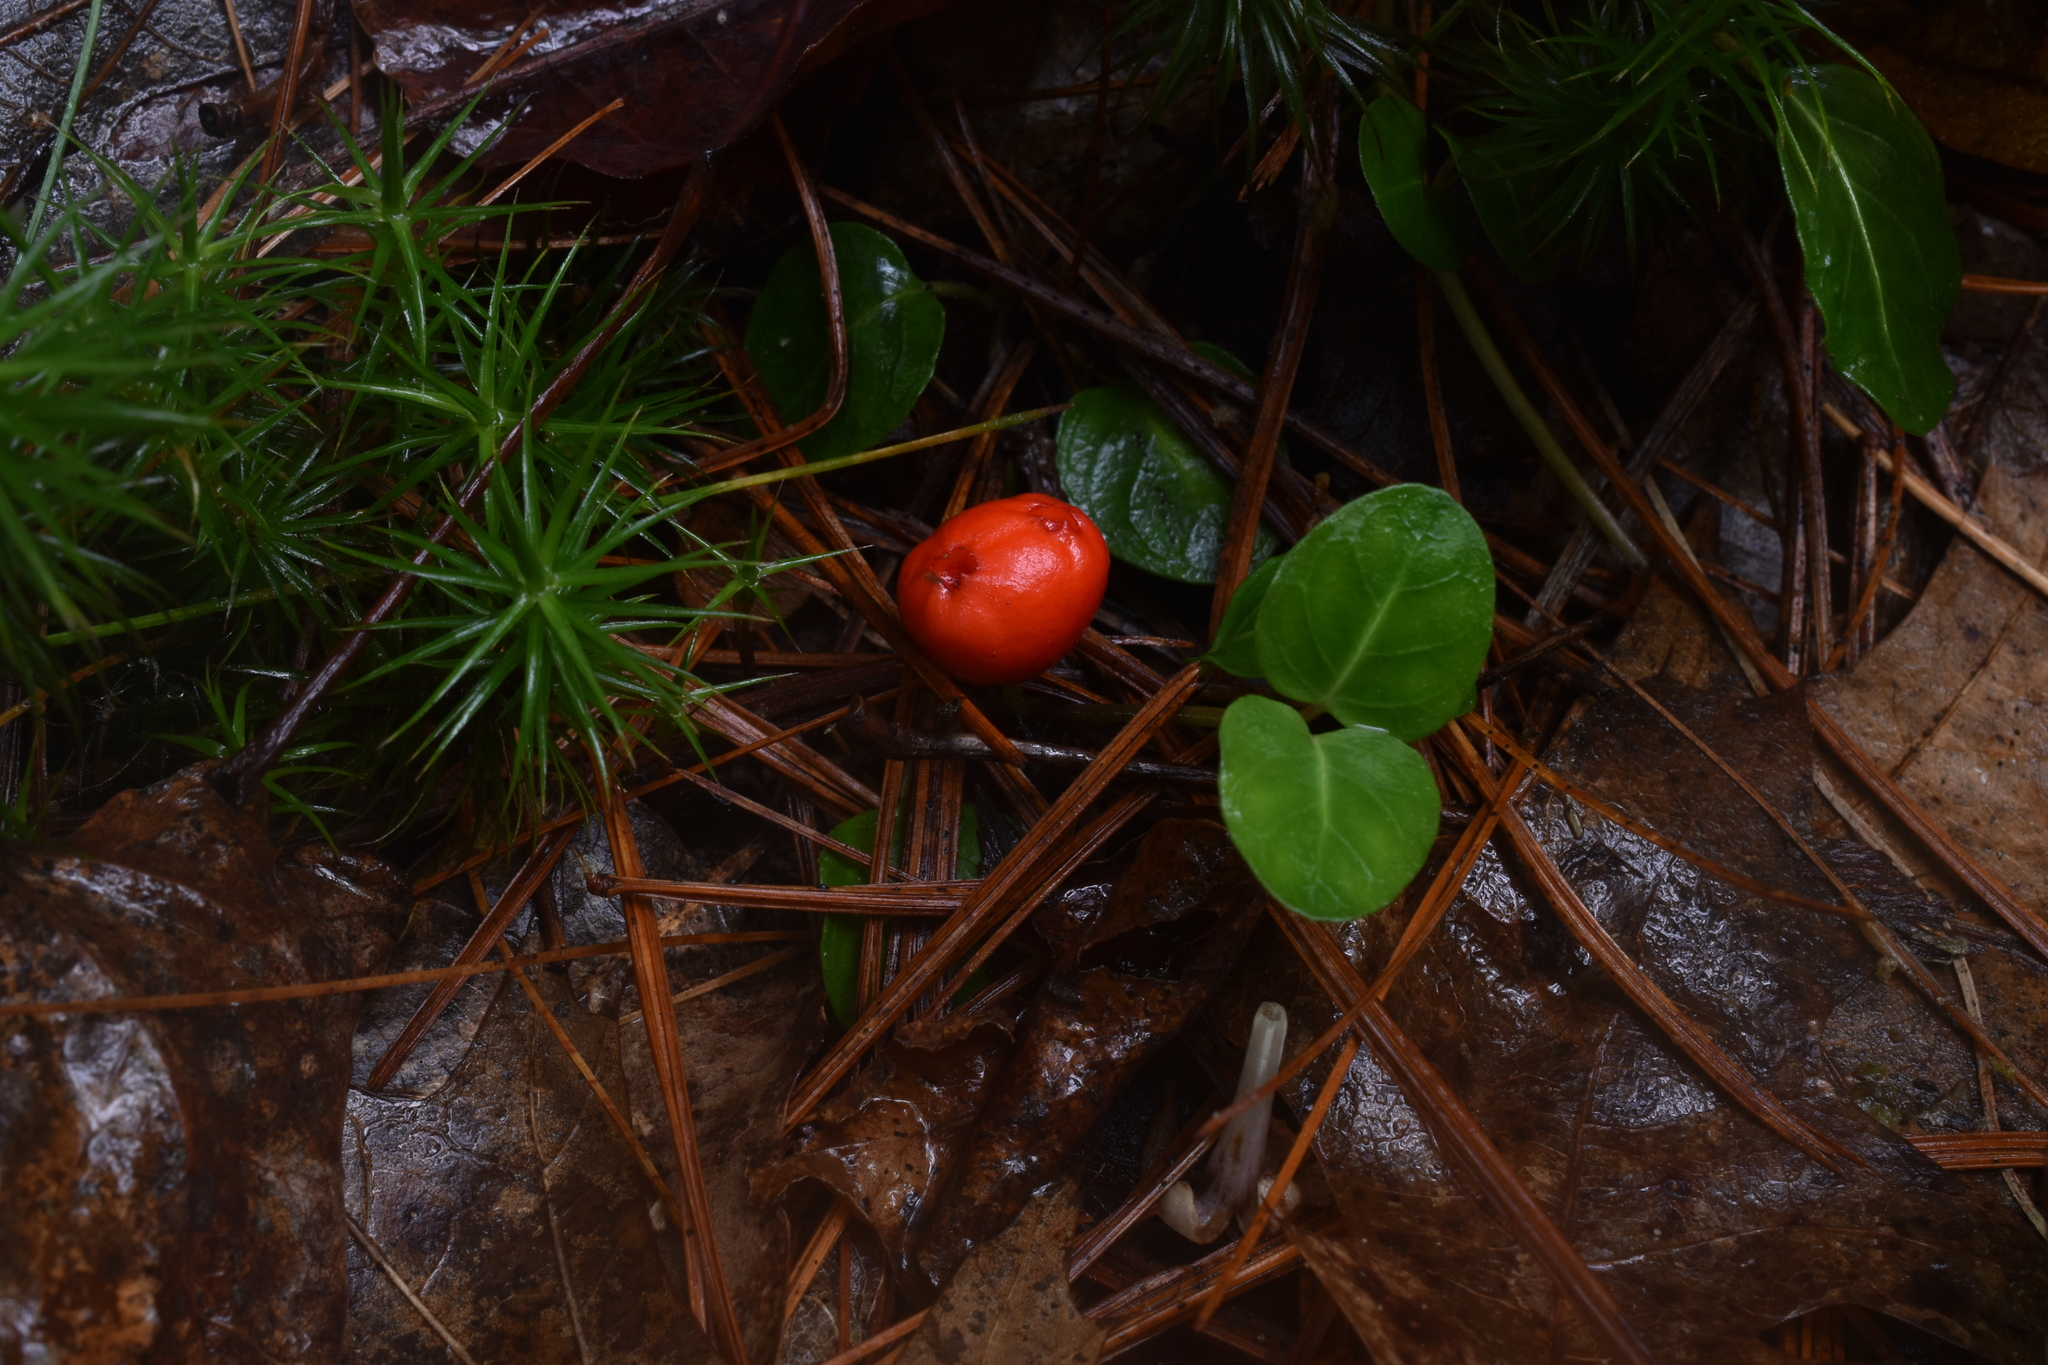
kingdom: Plantae
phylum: Tracheophyta
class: Magnoliopsida
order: Gentianales
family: Rubiaceae
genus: Mitchella
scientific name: Mitchella repens
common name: Partridge-berry
